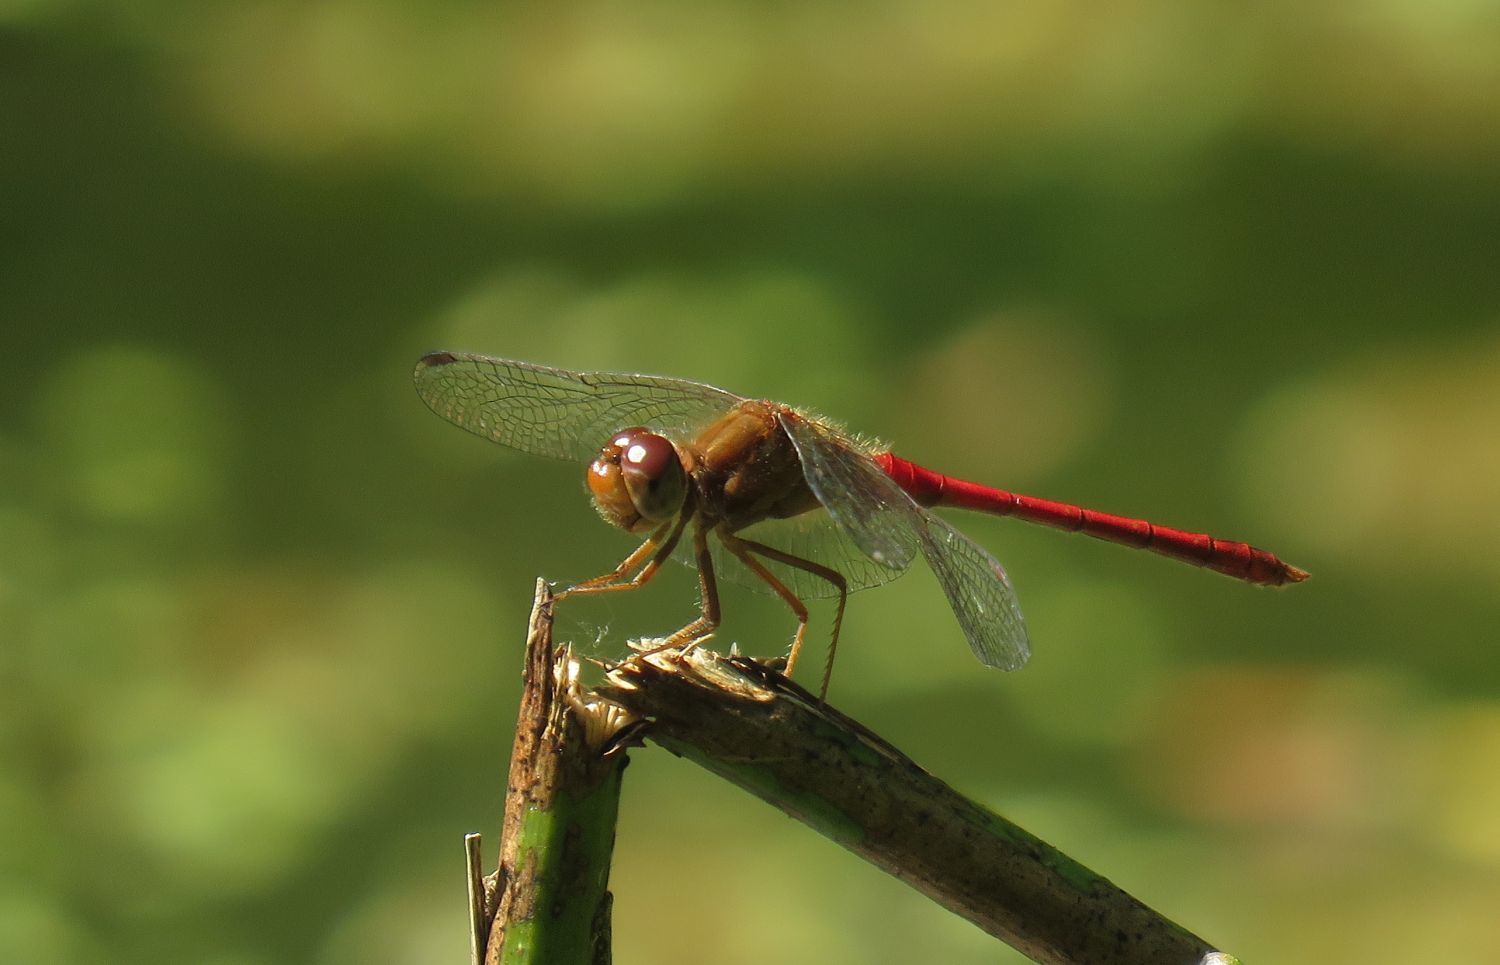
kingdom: Animalia
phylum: Arthropoda
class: Insecta
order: Odonata
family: Libellulidae
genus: Sympetrum
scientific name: Sympetrum vicinum
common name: Autumn meadowhawk
